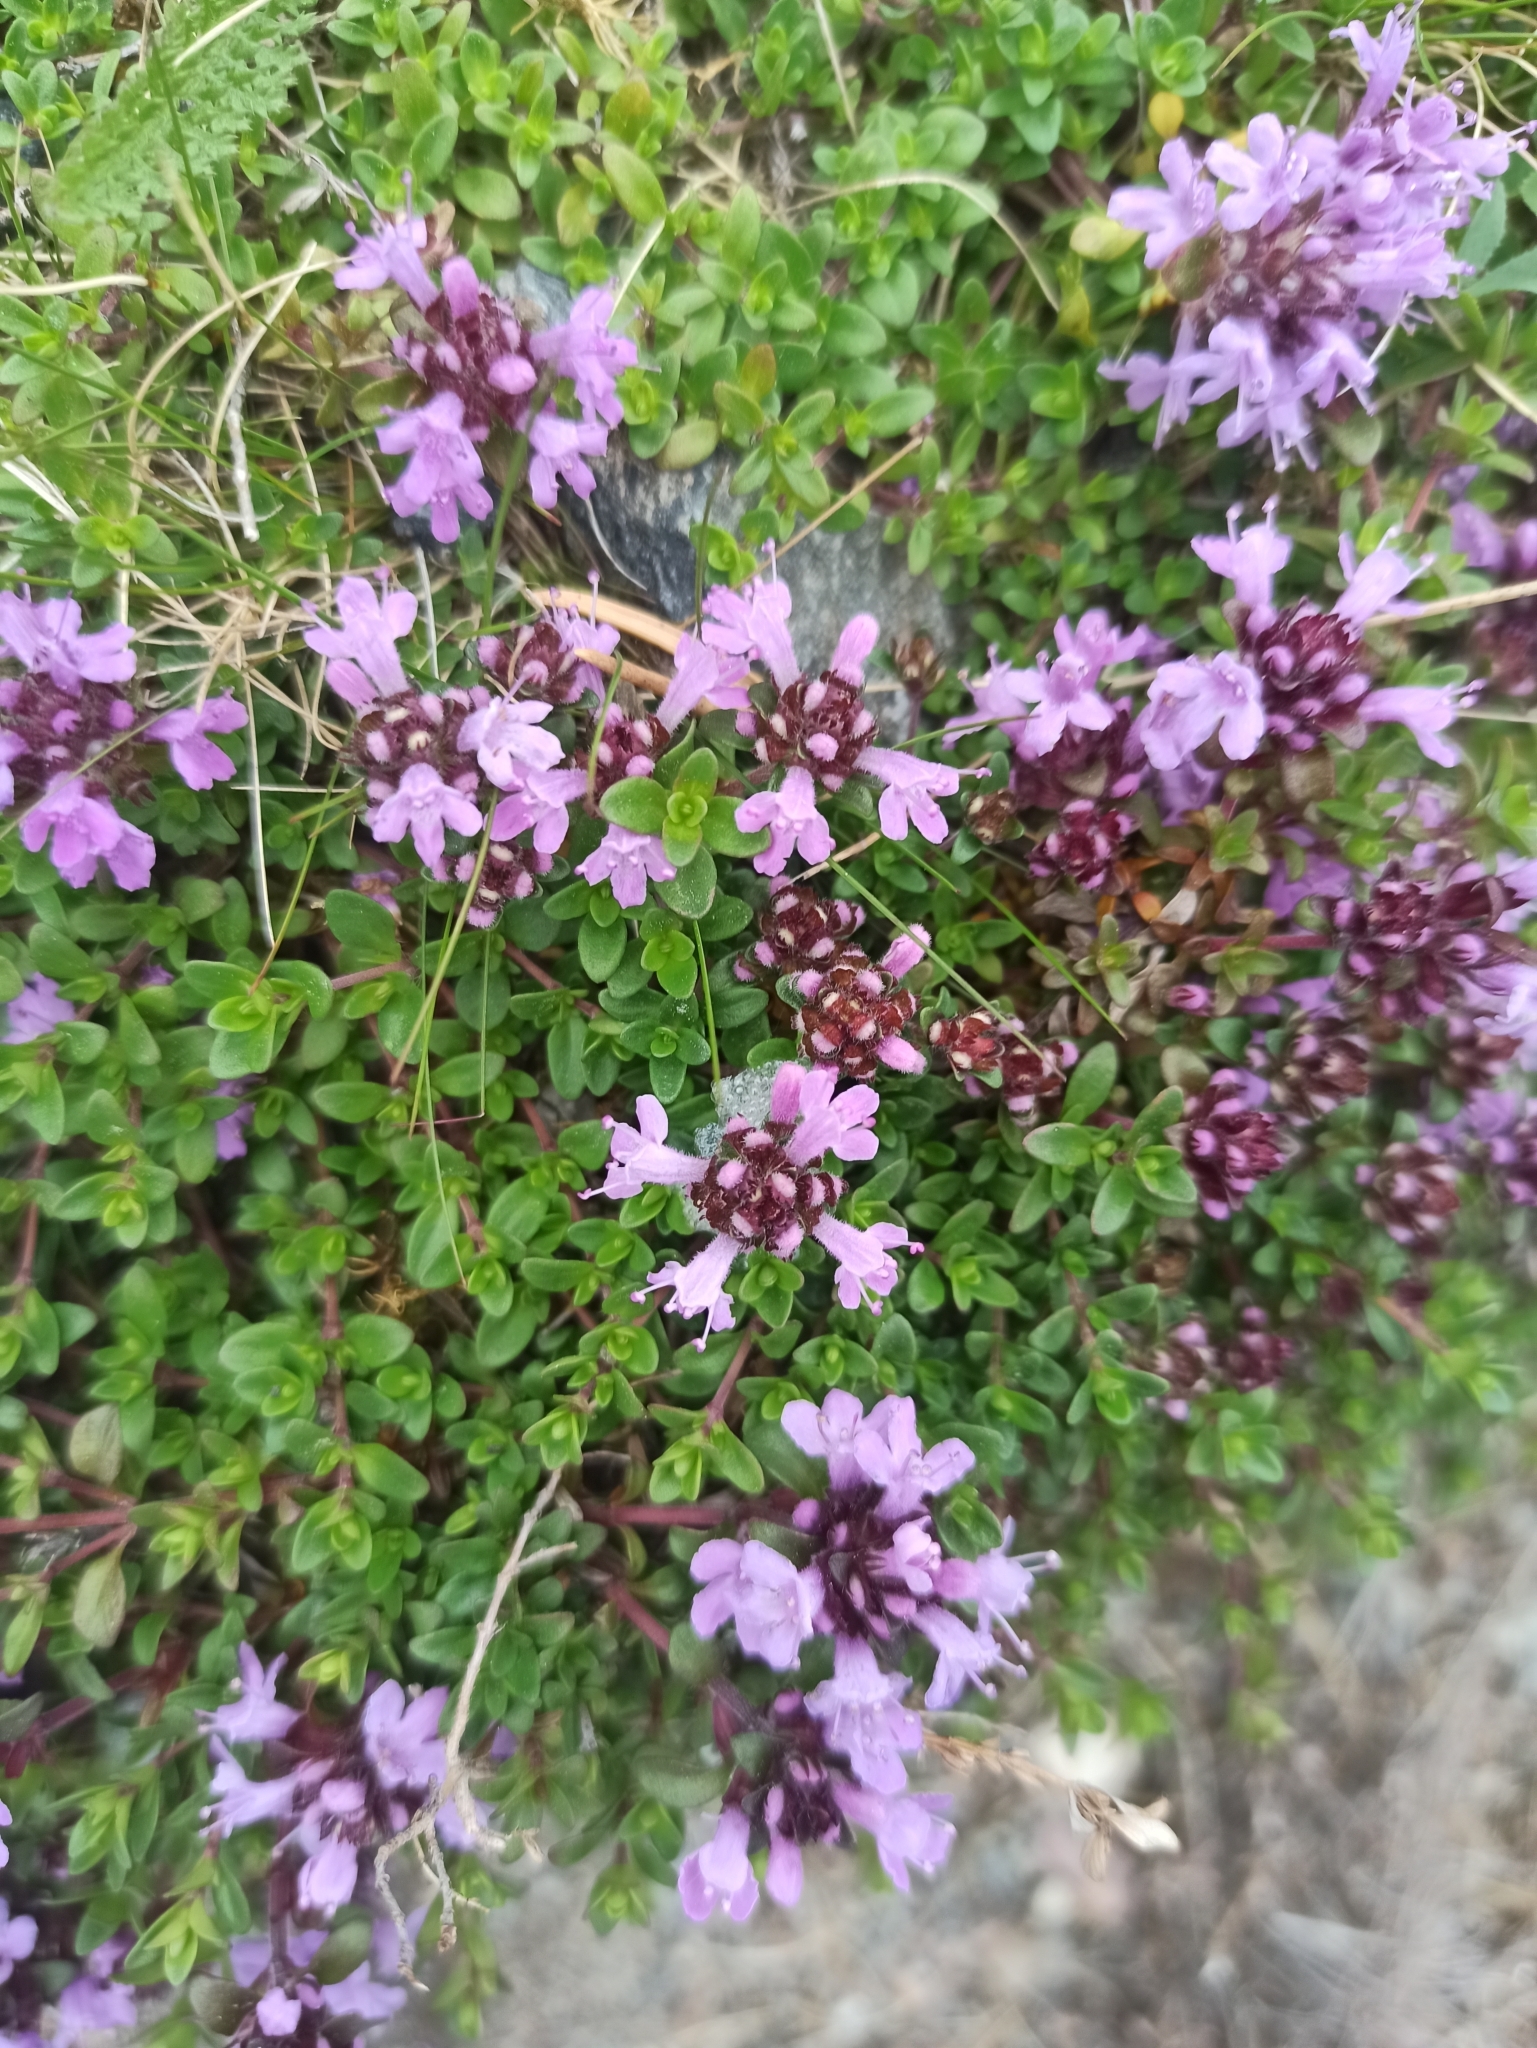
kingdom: Plantae
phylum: Tracheophyta
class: Magnoliopsida
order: Lamiales
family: Lamiaceae
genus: Thymus
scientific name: Thymus serpyllum
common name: Breckland thyme
